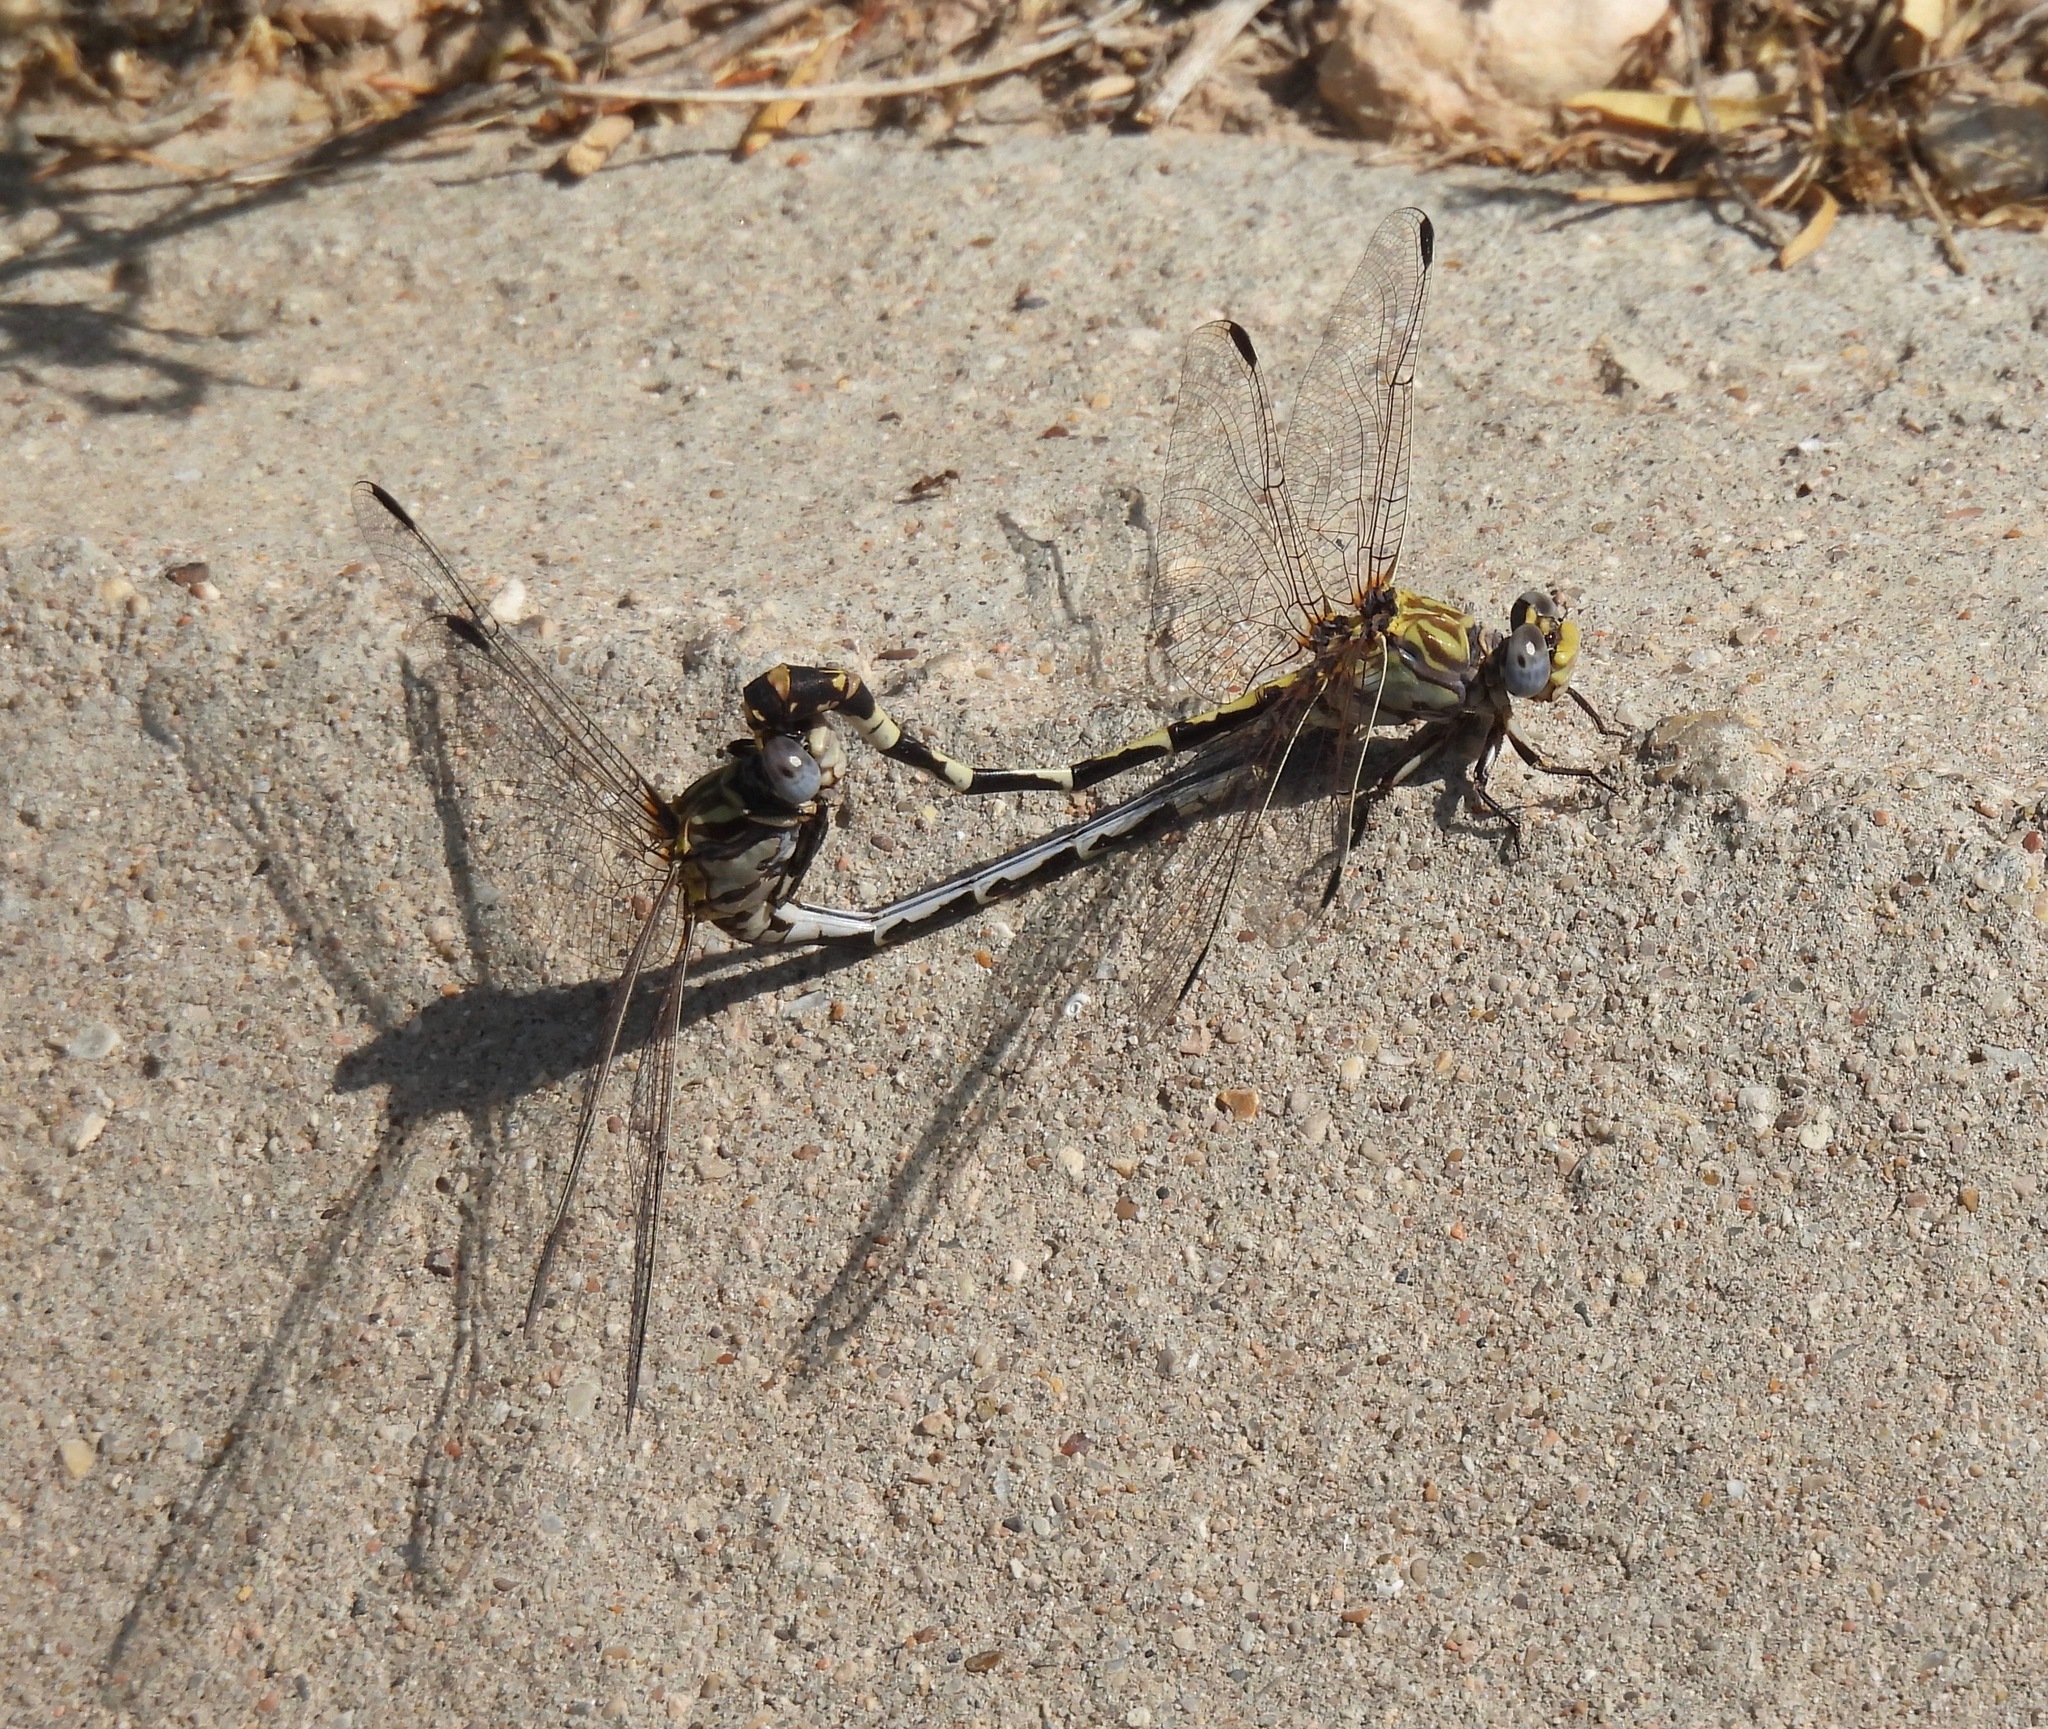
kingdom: Animalia
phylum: Arthropoda
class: Insecta
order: Odonata
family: Gomphidae
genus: Progomphus
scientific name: Progomphus borealis
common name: Gray sanddragon
